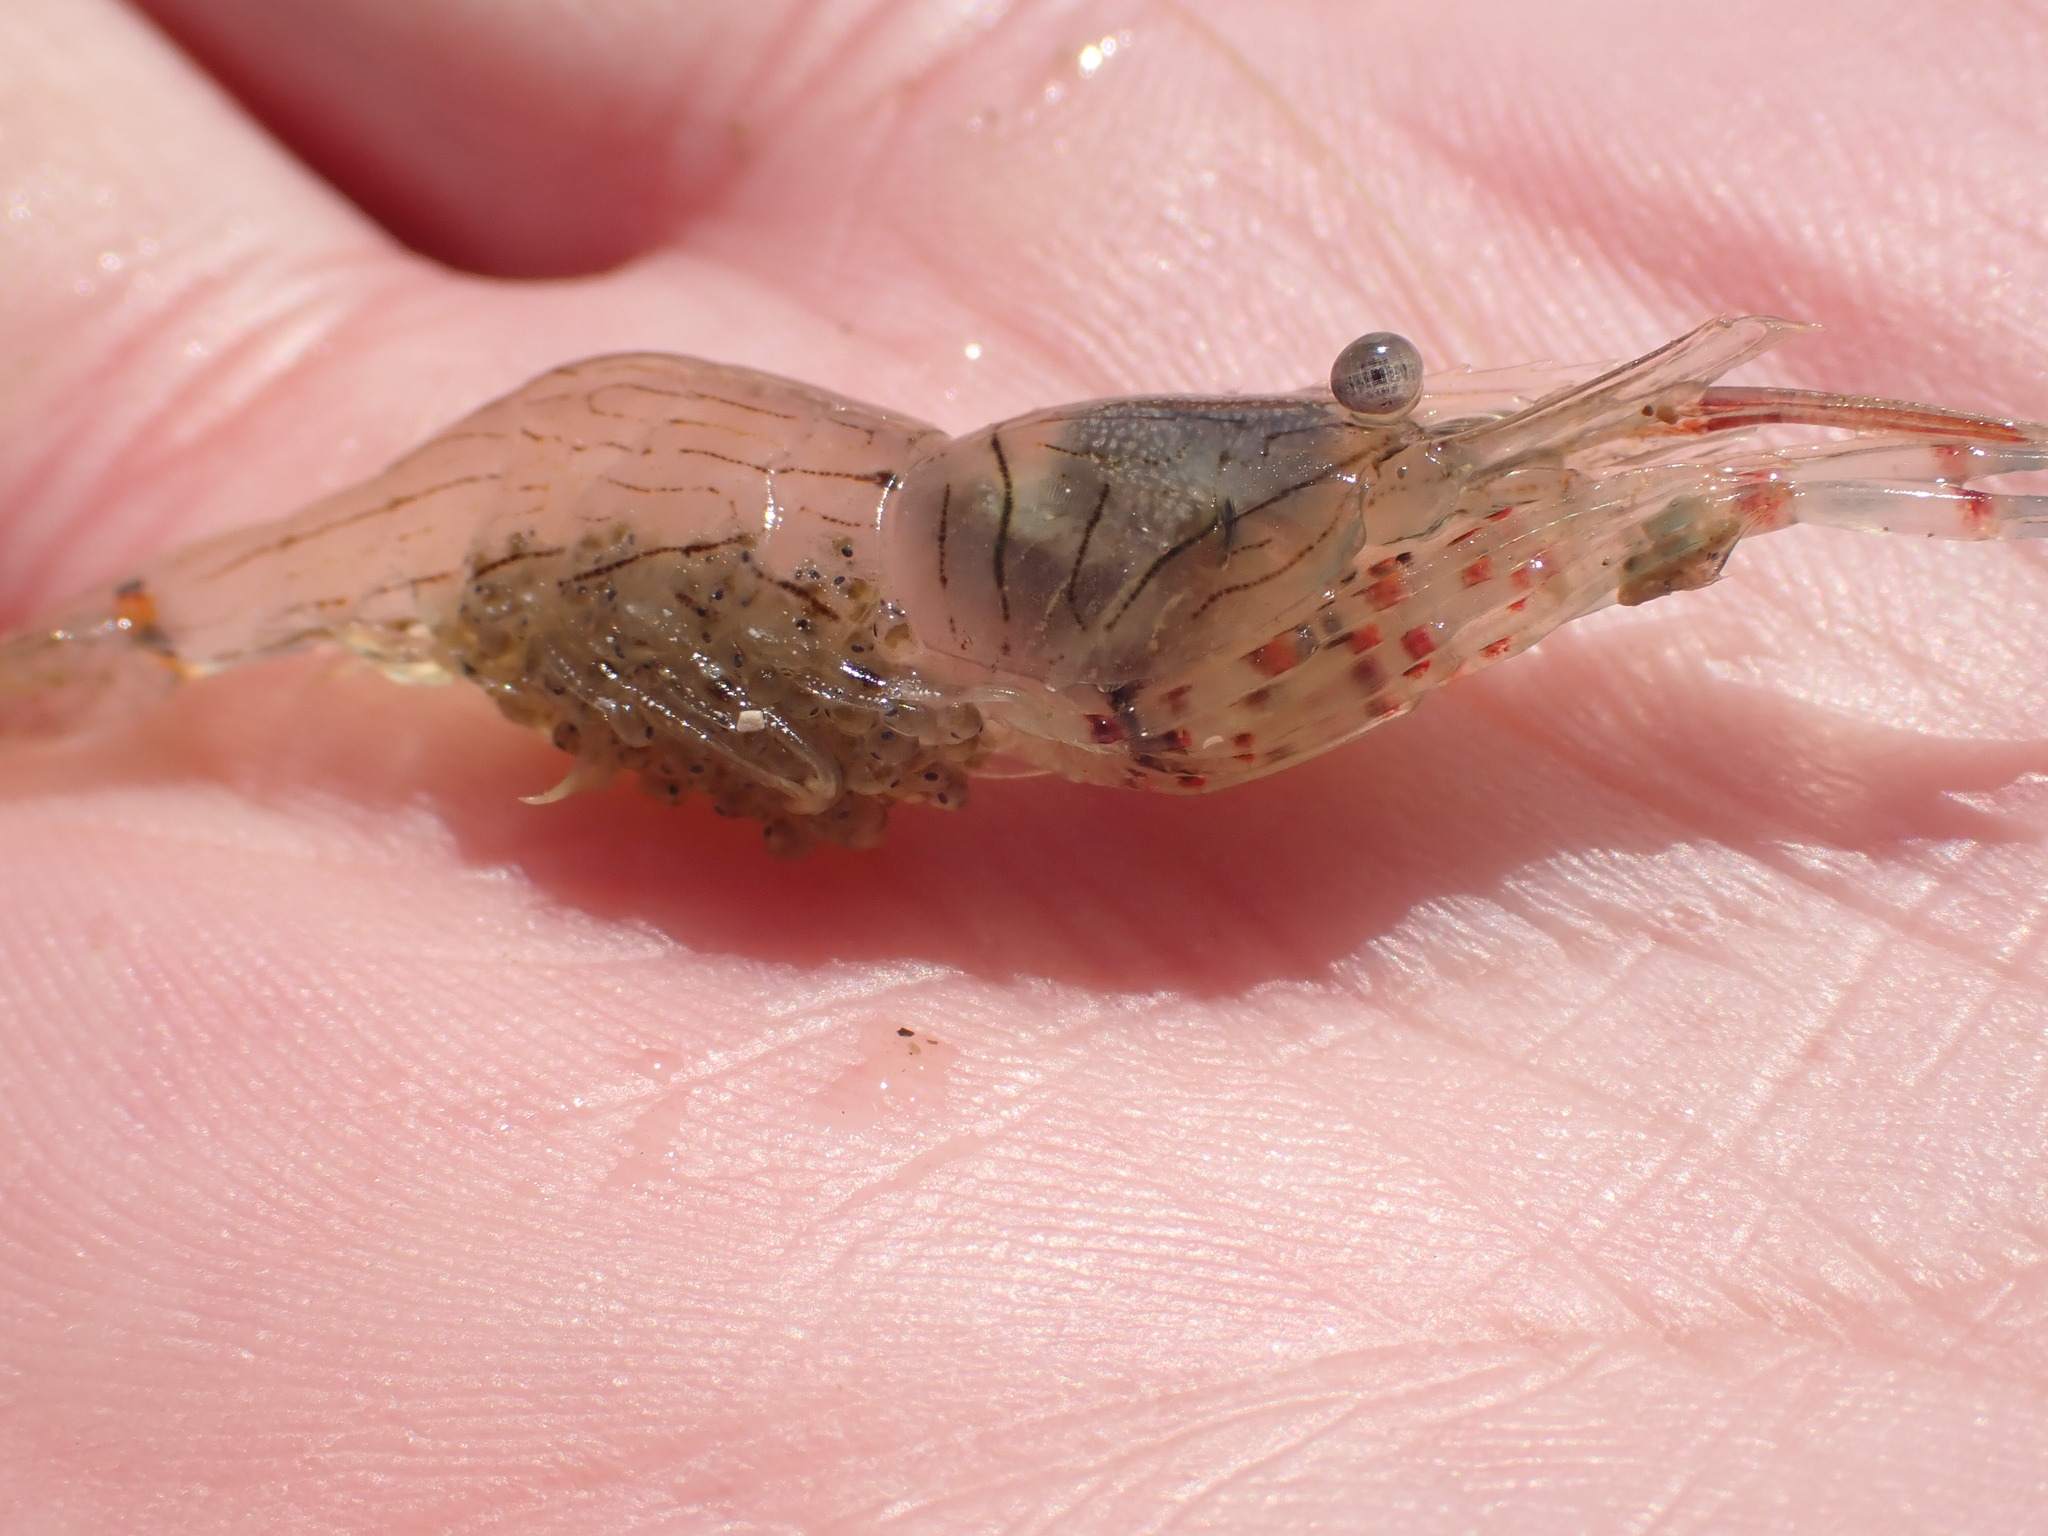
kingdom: Animalia
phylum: Arthropoda
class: Malacostraca
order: Decapoda
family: Palaemonidae
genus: Palaemon
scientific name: Palaemon affinis
